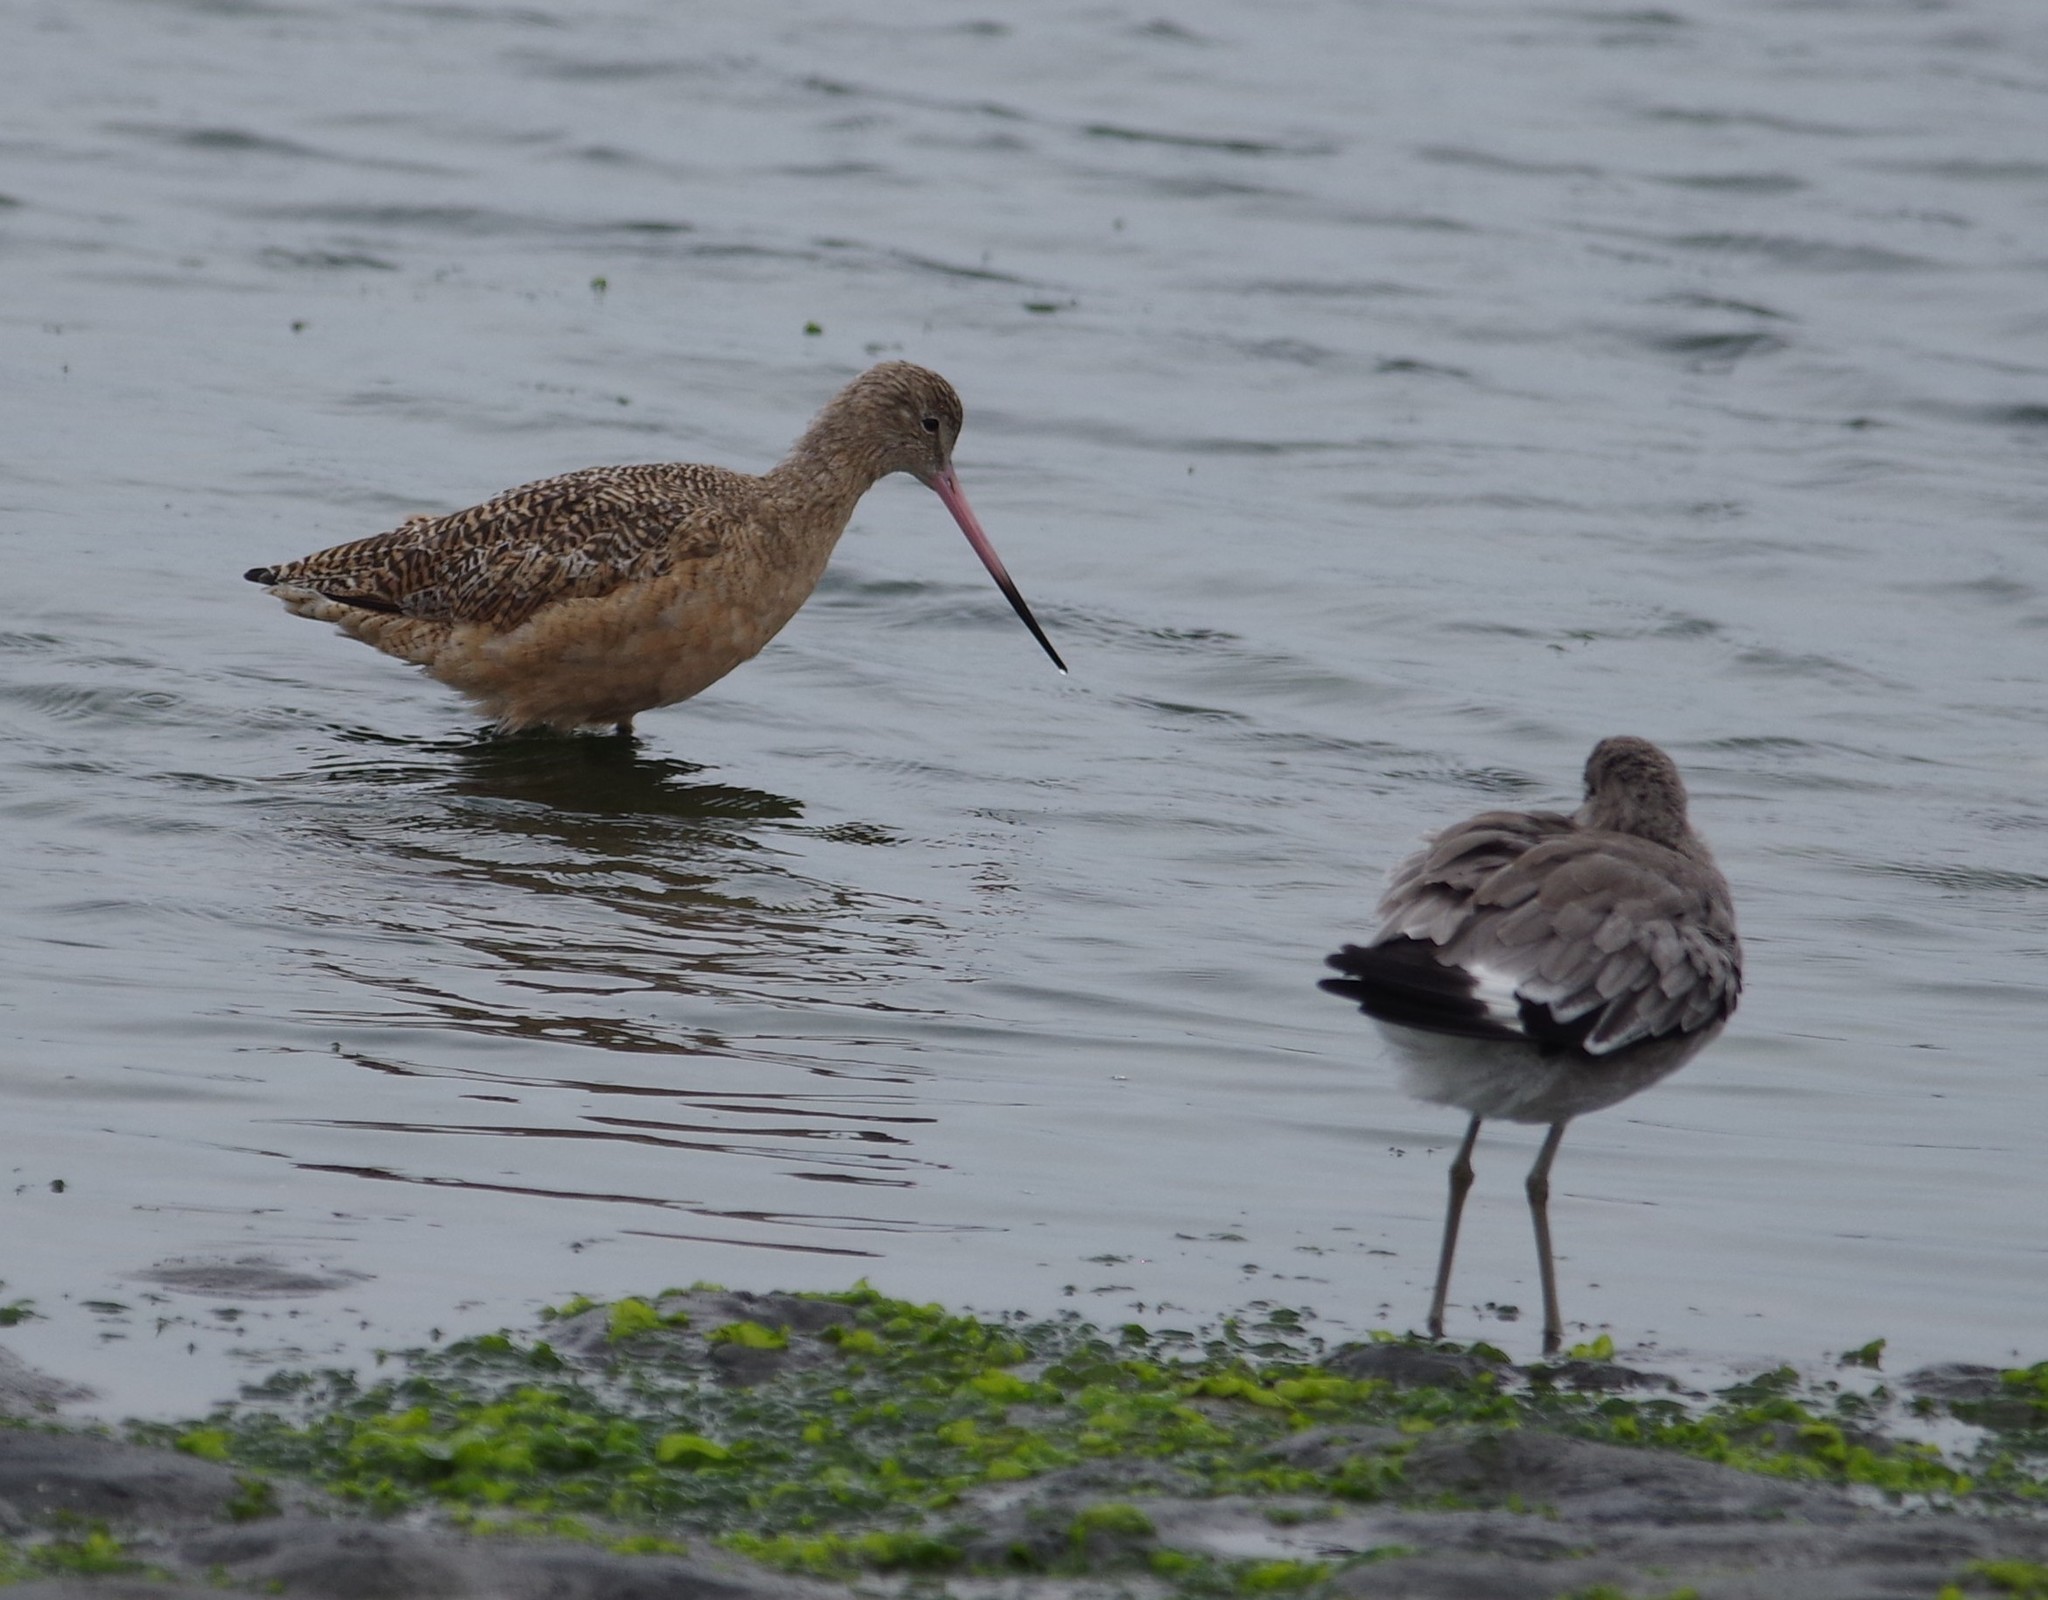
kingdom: Animalia
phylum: Chordata
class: Aves
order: Charadriiformes
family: Scolopacidae
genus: Limosa
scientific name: Limosa fedoa
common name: Marbled godwit
